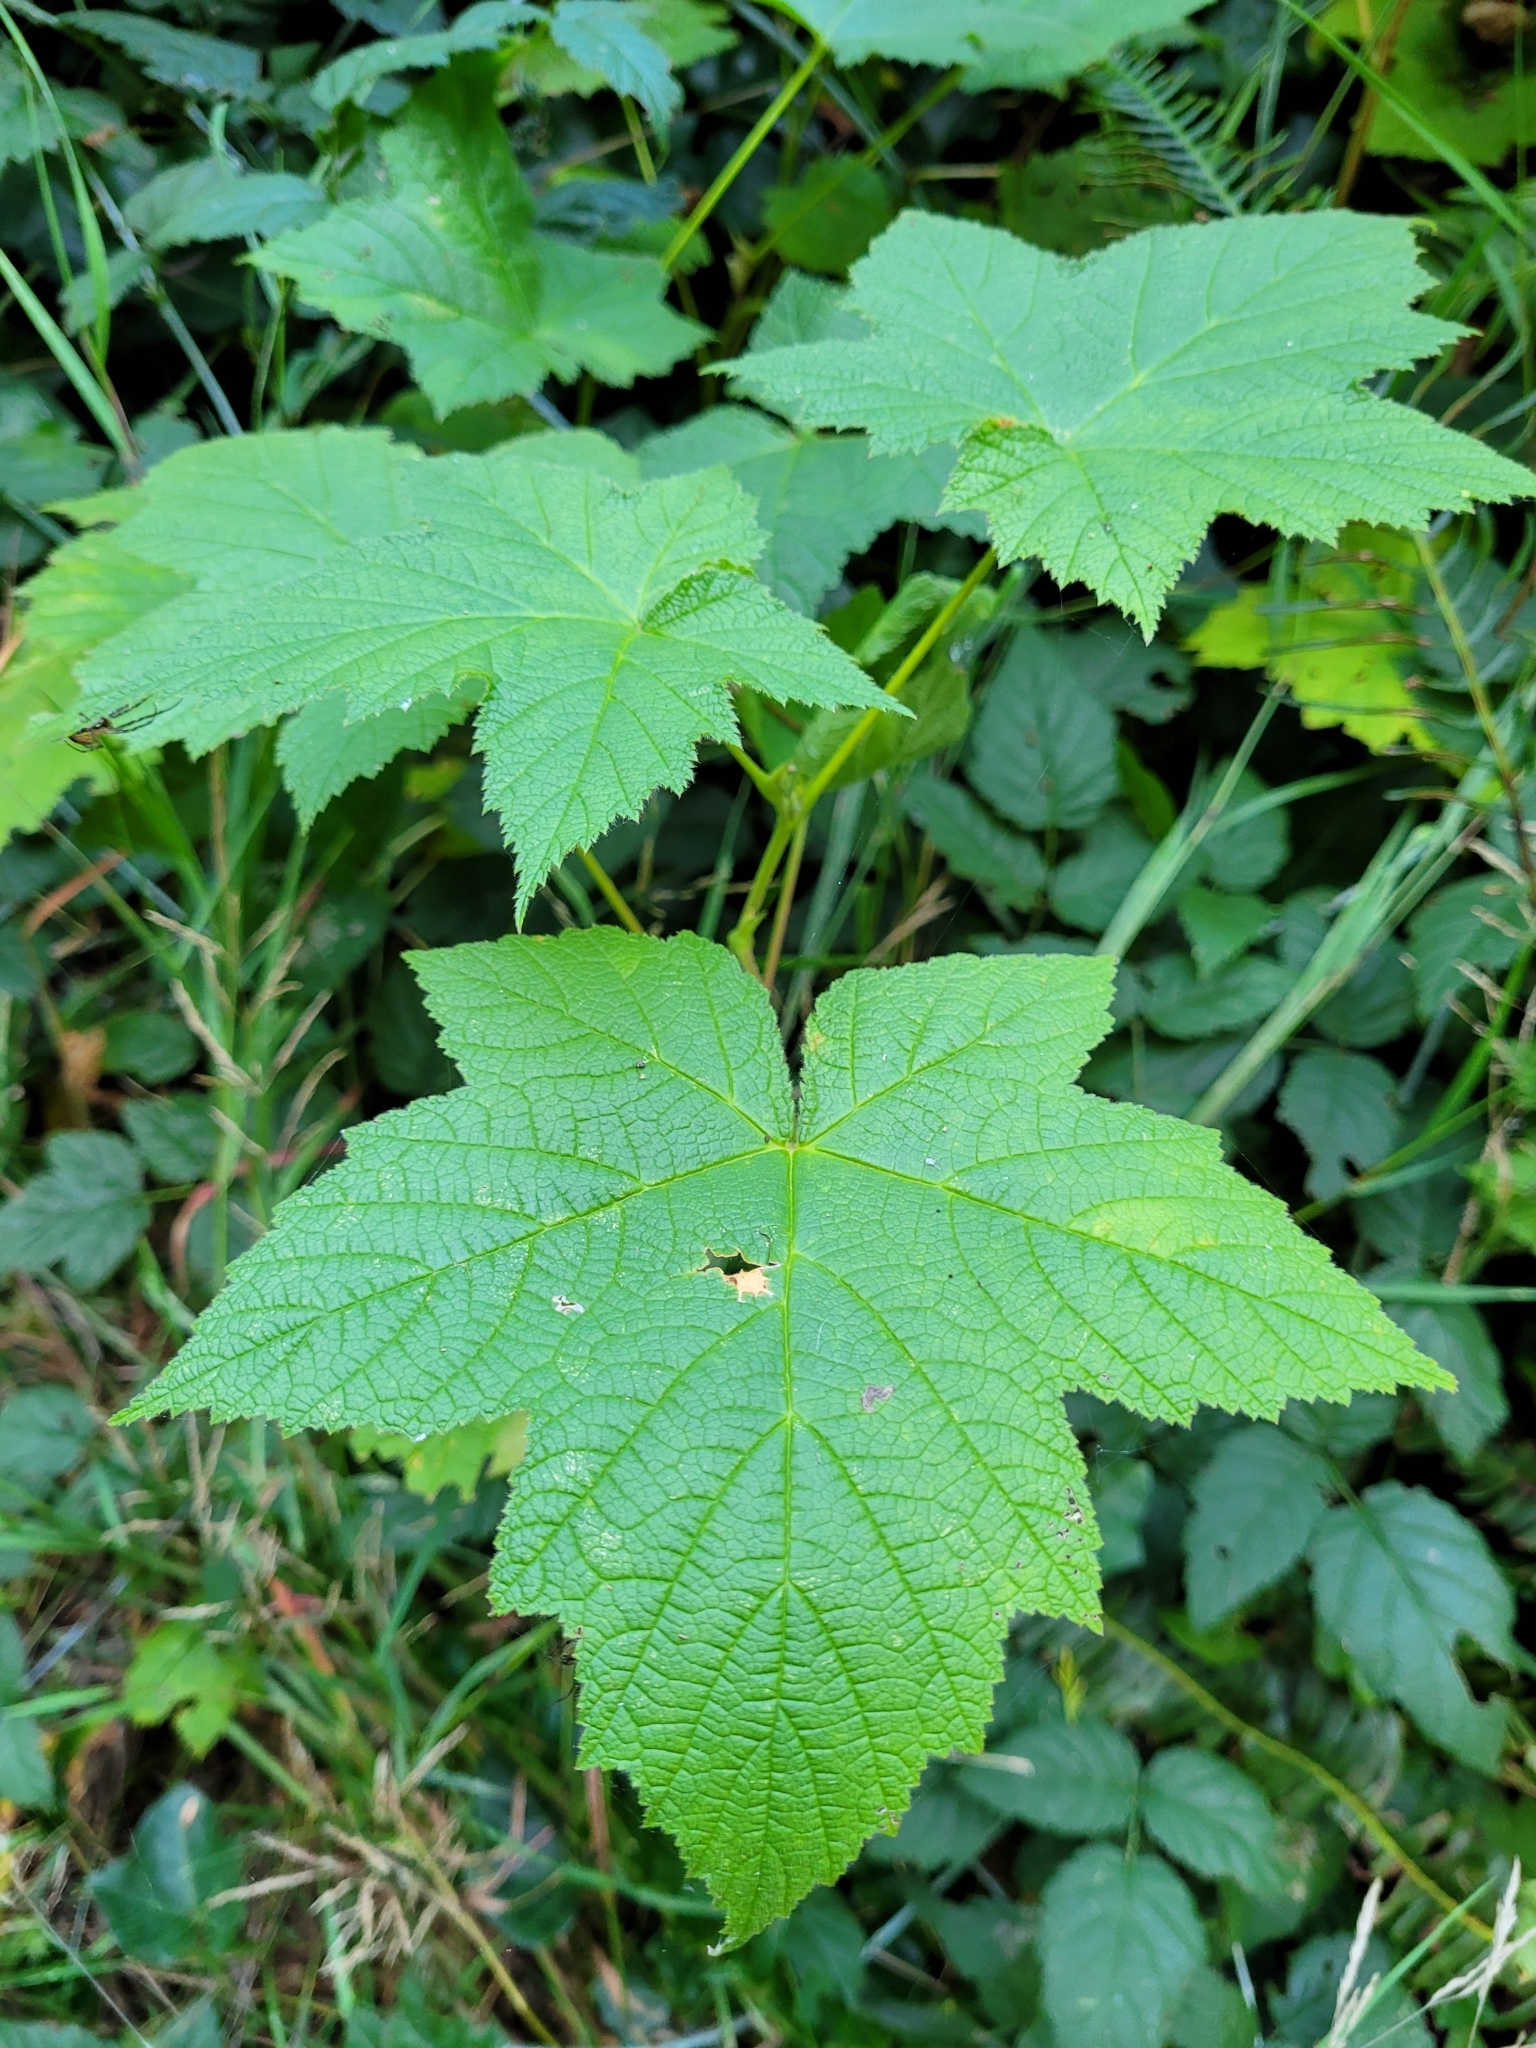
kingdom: Plantae
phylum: Tracheophyta
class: Magnoliopsida
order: Rosales
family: Rosaceae
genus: Rubus
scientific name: Rubus parviflorus
